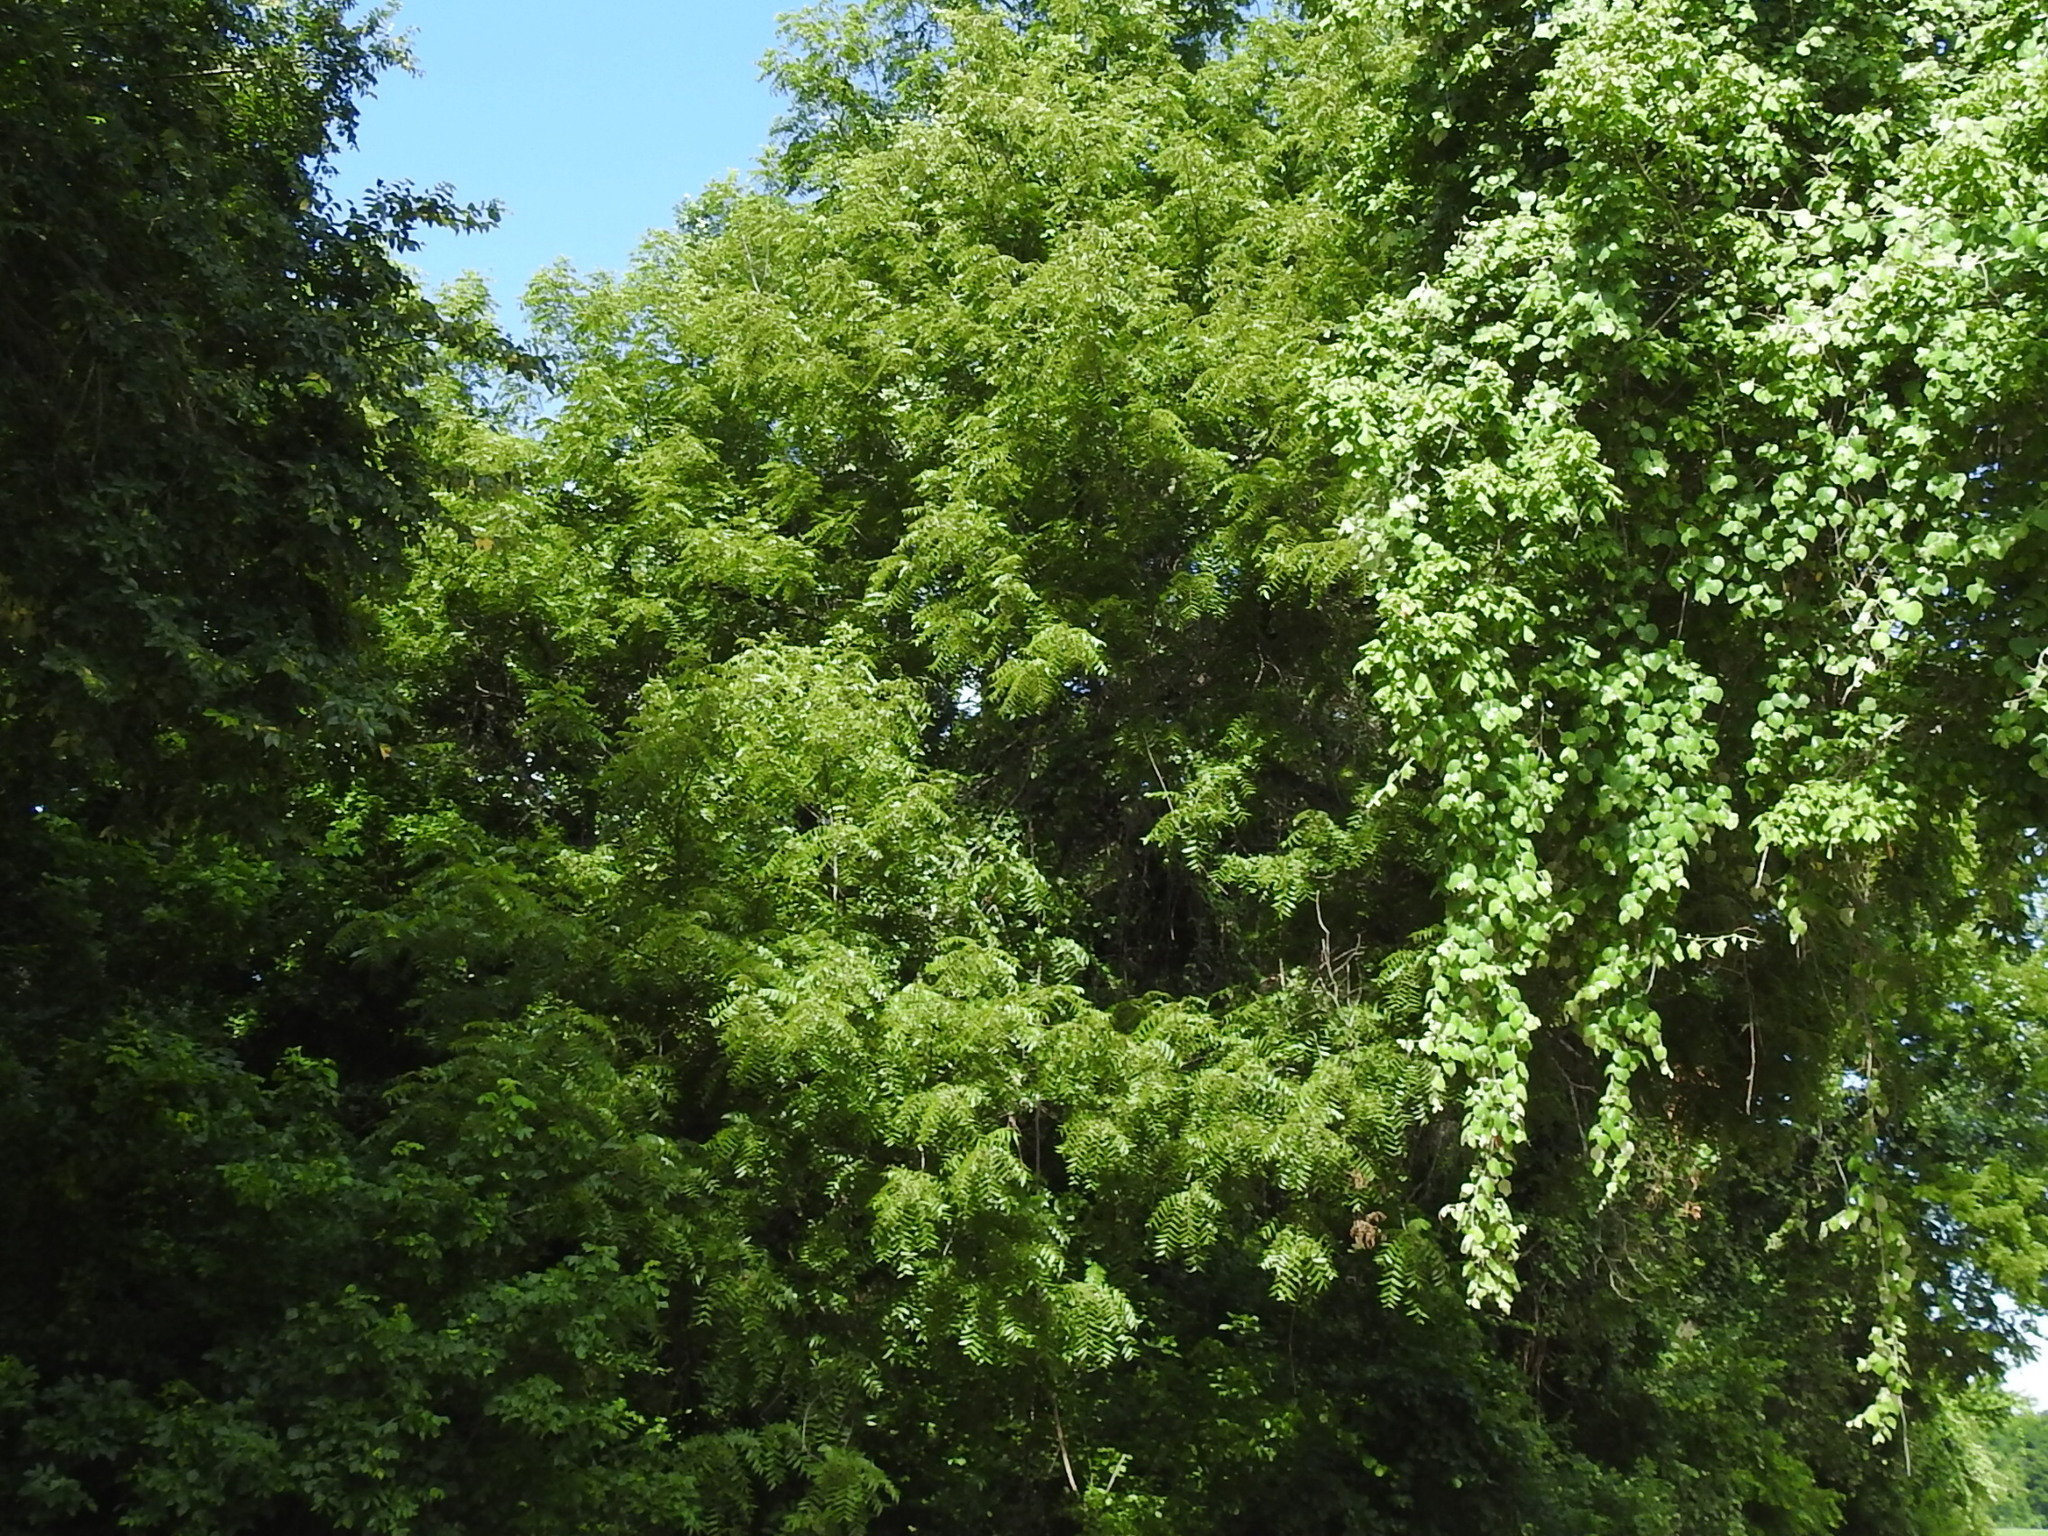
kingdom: Plantae
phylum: Tracheophyta
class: Magnoliopsida
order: Fagales
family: Juglandaceae
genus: Juglans
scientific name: Juglans nigra
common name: Black walnut
